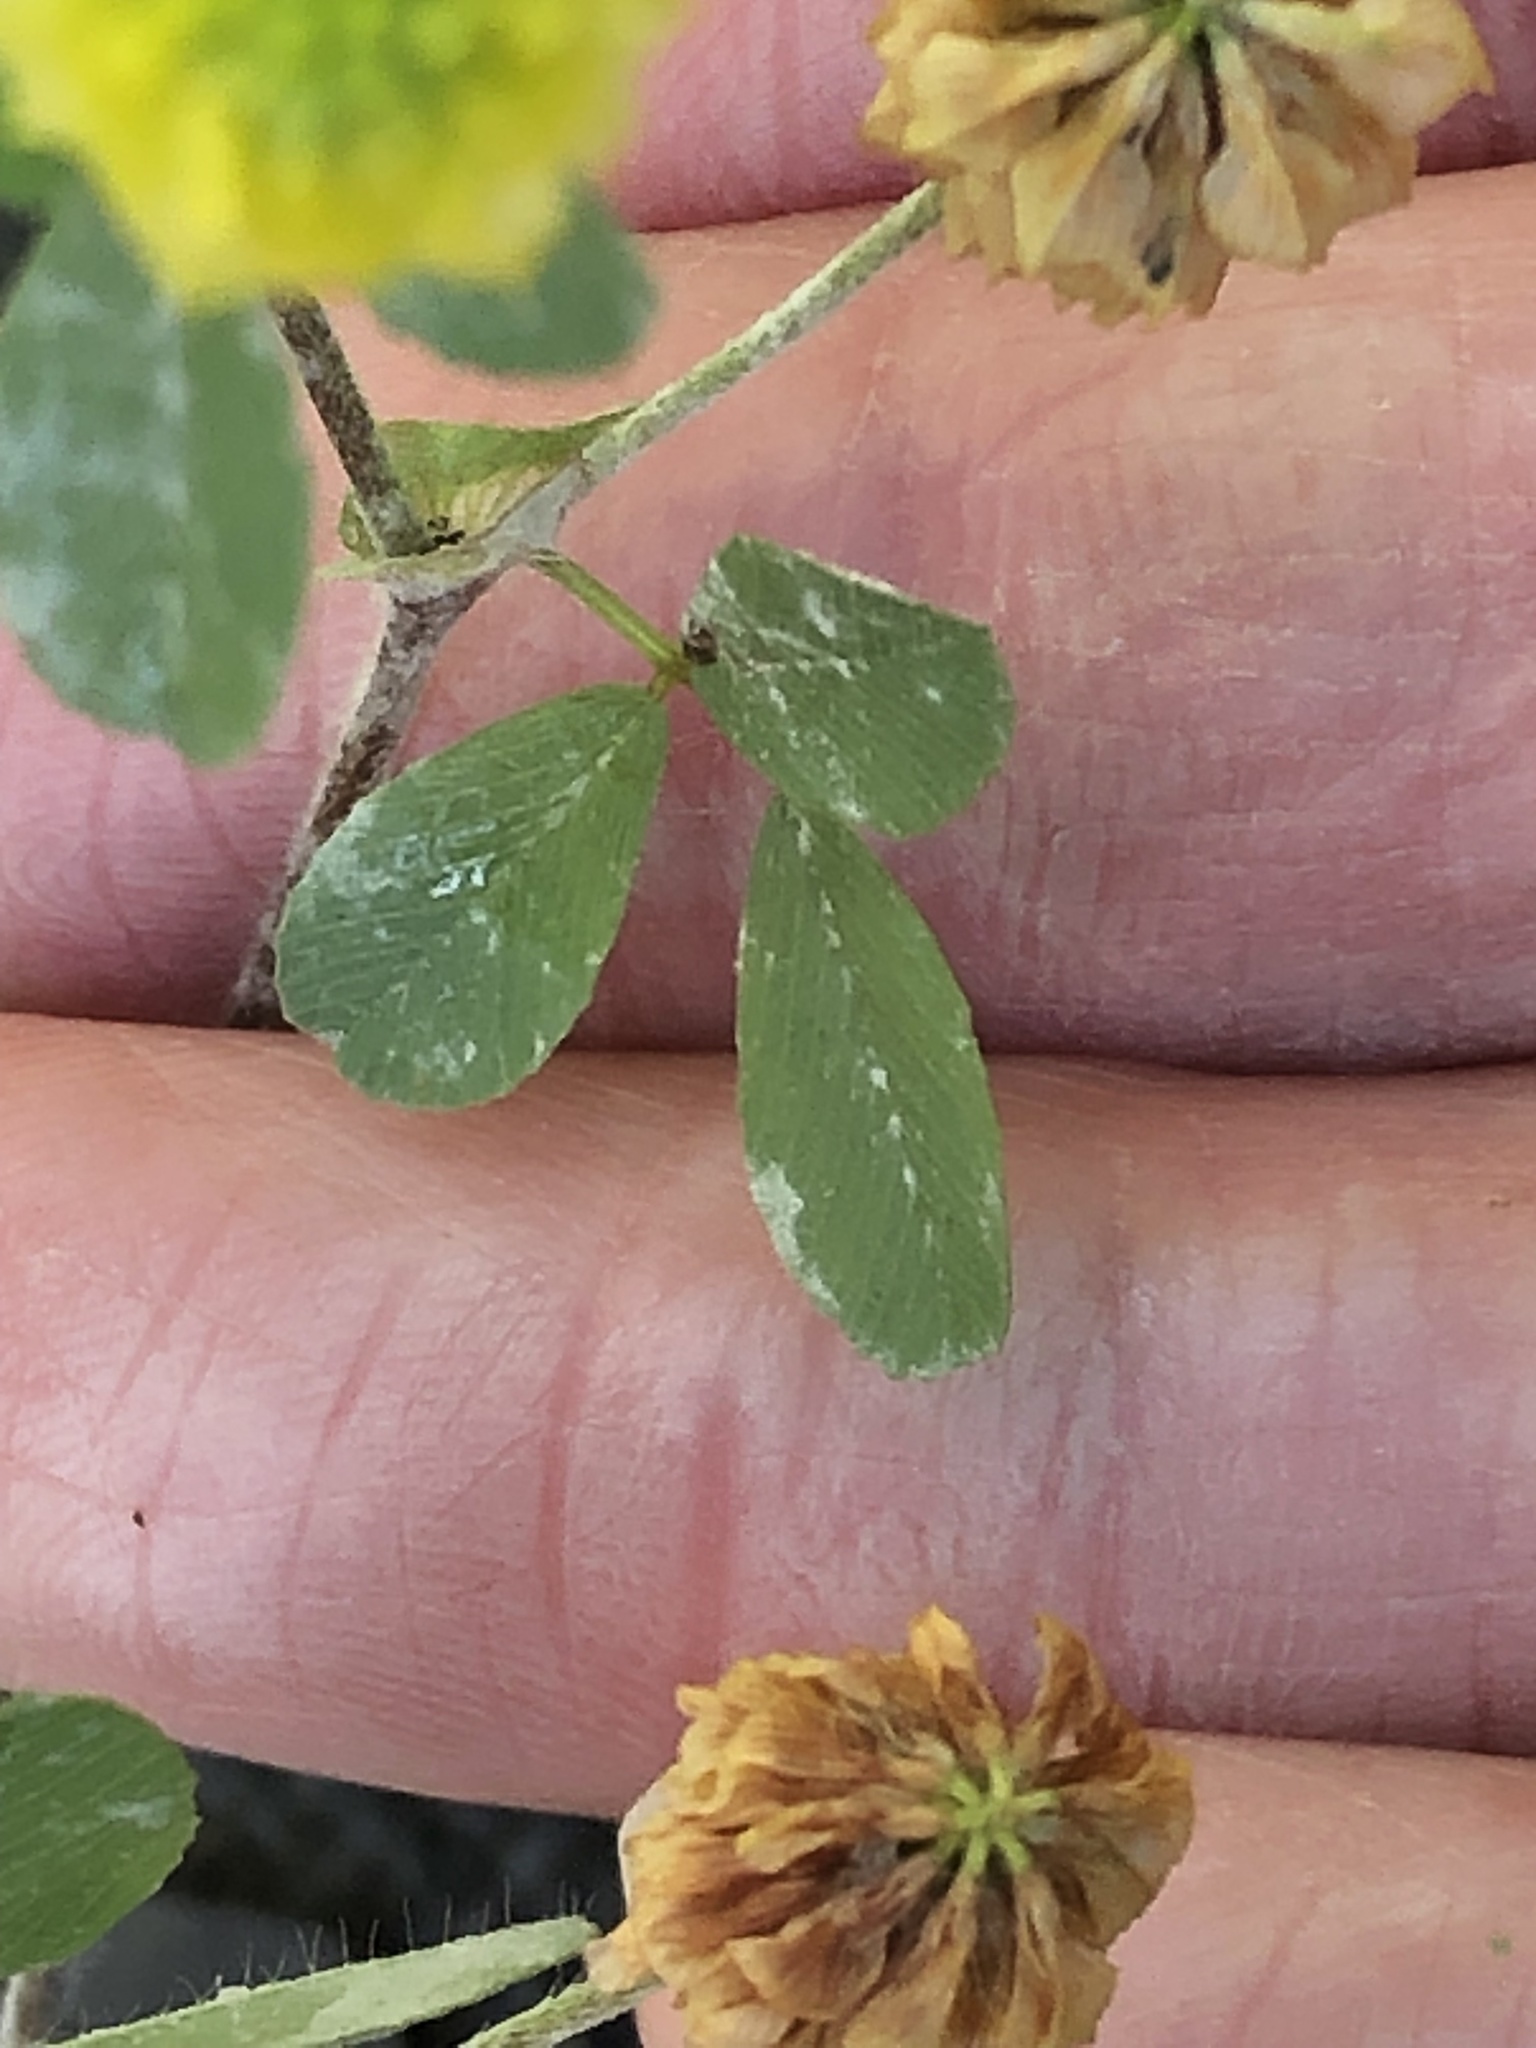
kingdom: Plantae
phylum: Tracheophyta
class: Magnoliopsida
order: Fabales
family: Fabaceae
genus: Trifolium
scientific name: Trifolium campestre
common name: Field clover
